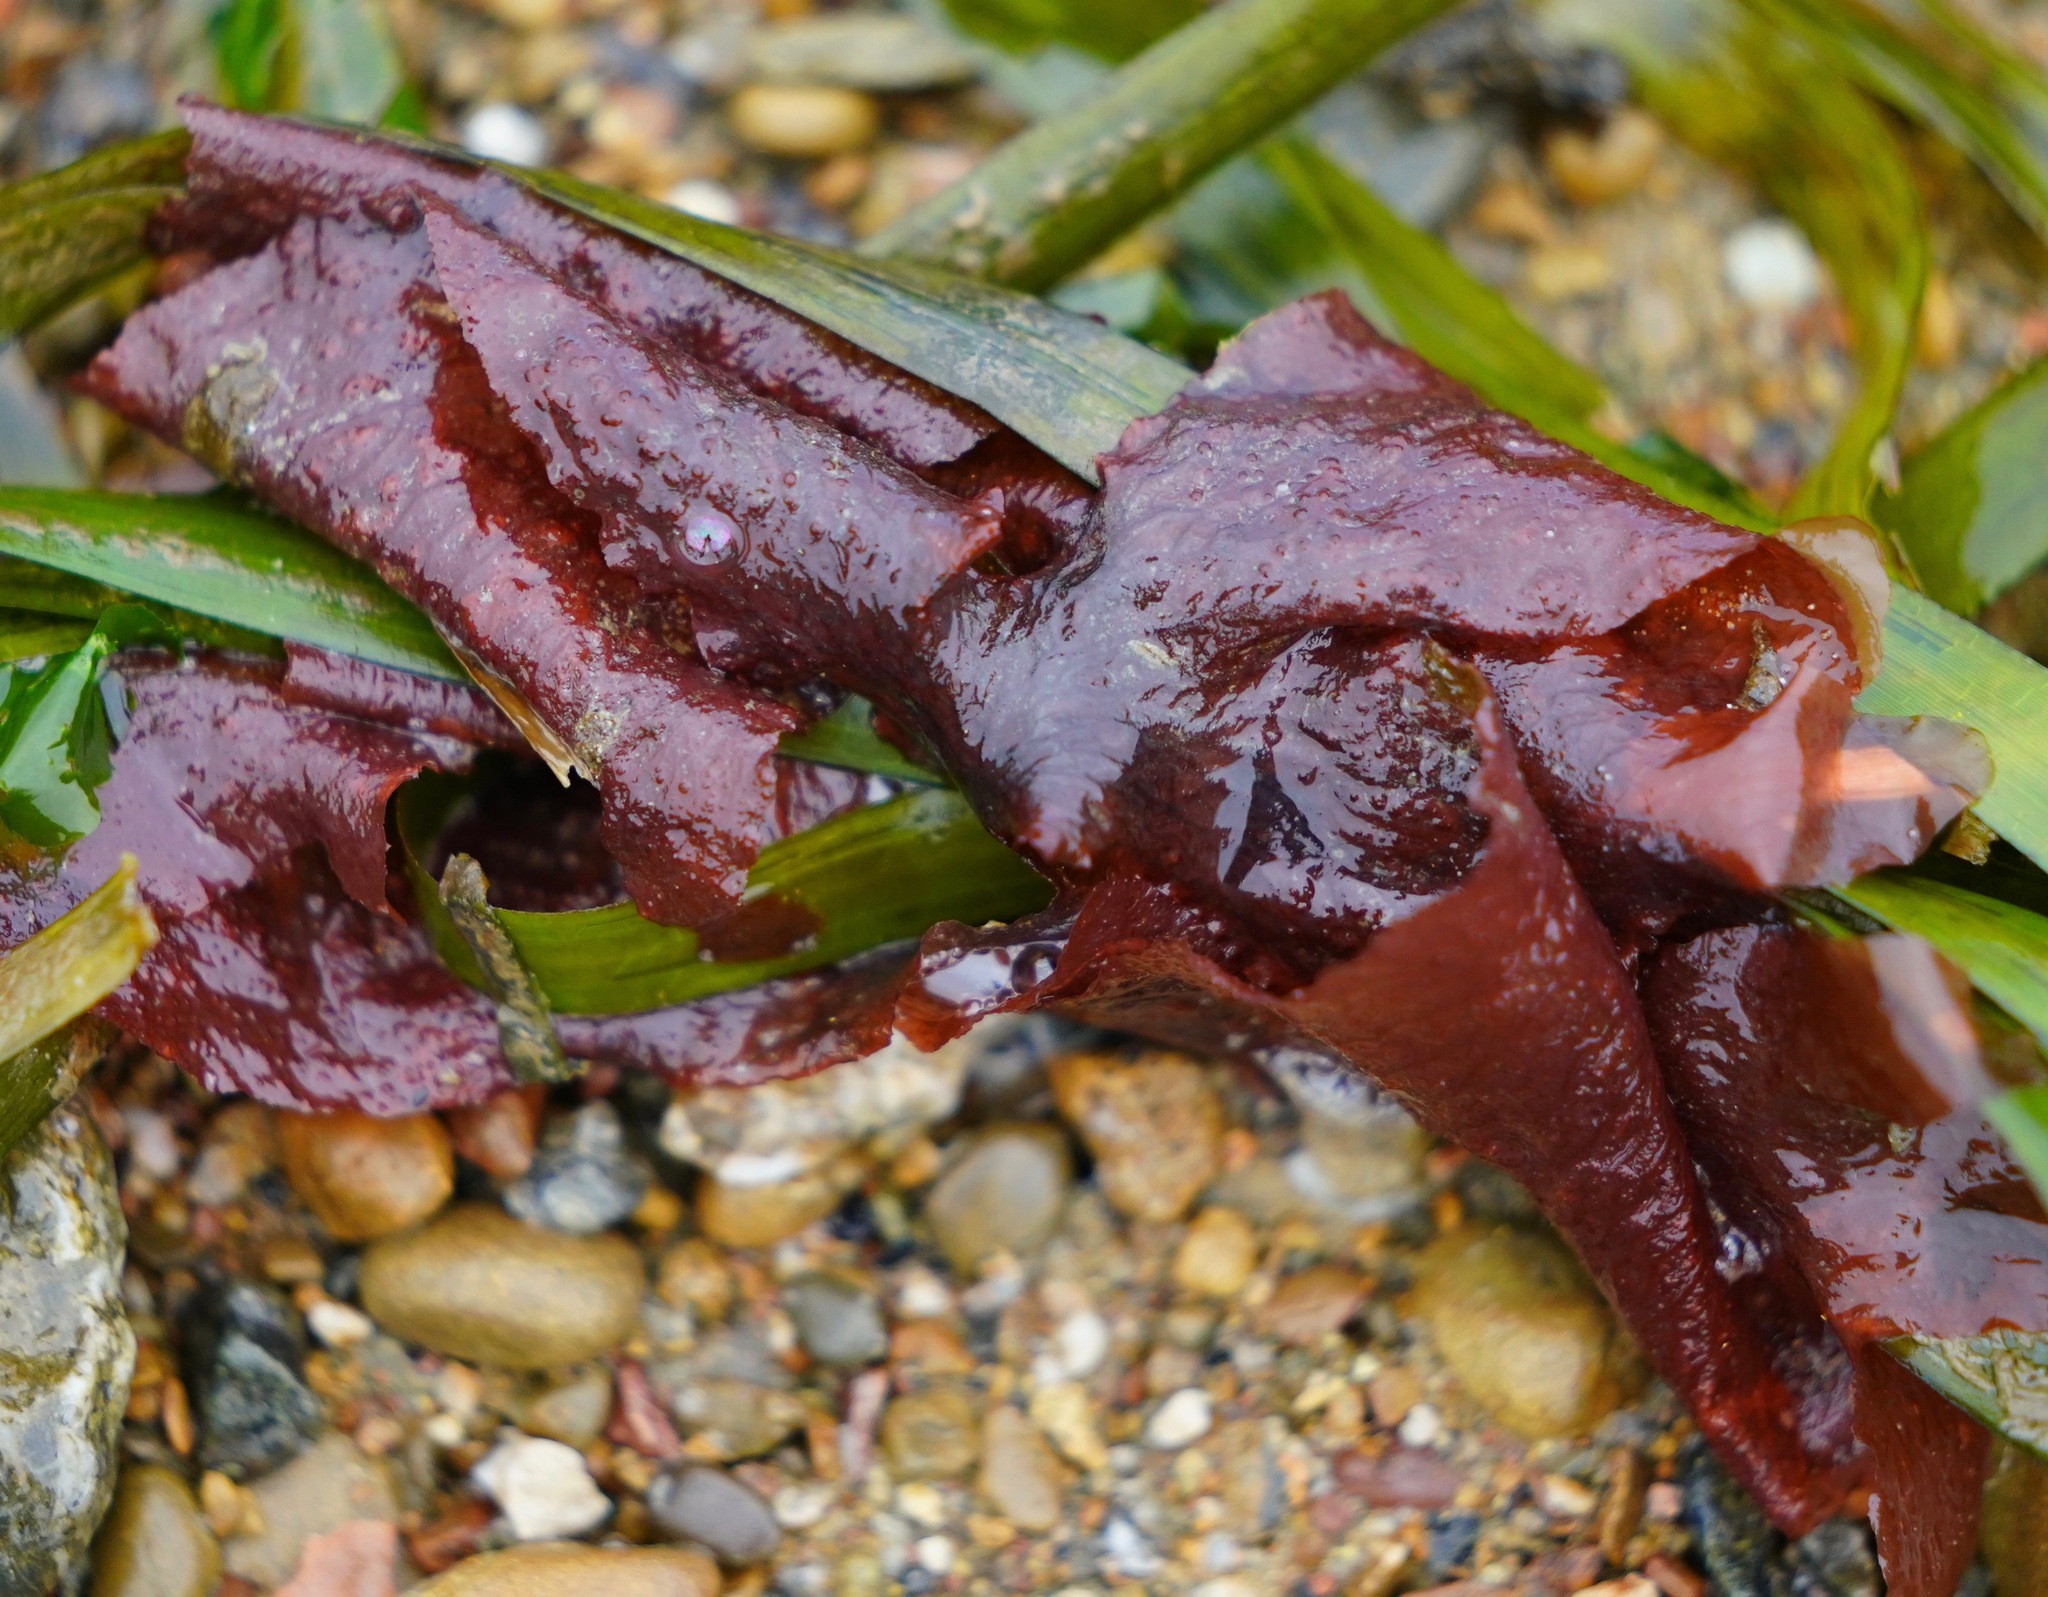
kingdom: Plantae
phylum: Rhodophyta
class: Florideophyceae
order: Ceramiales
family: Delesseriaceae
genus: Polyneura
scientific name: Polyneura latissima
